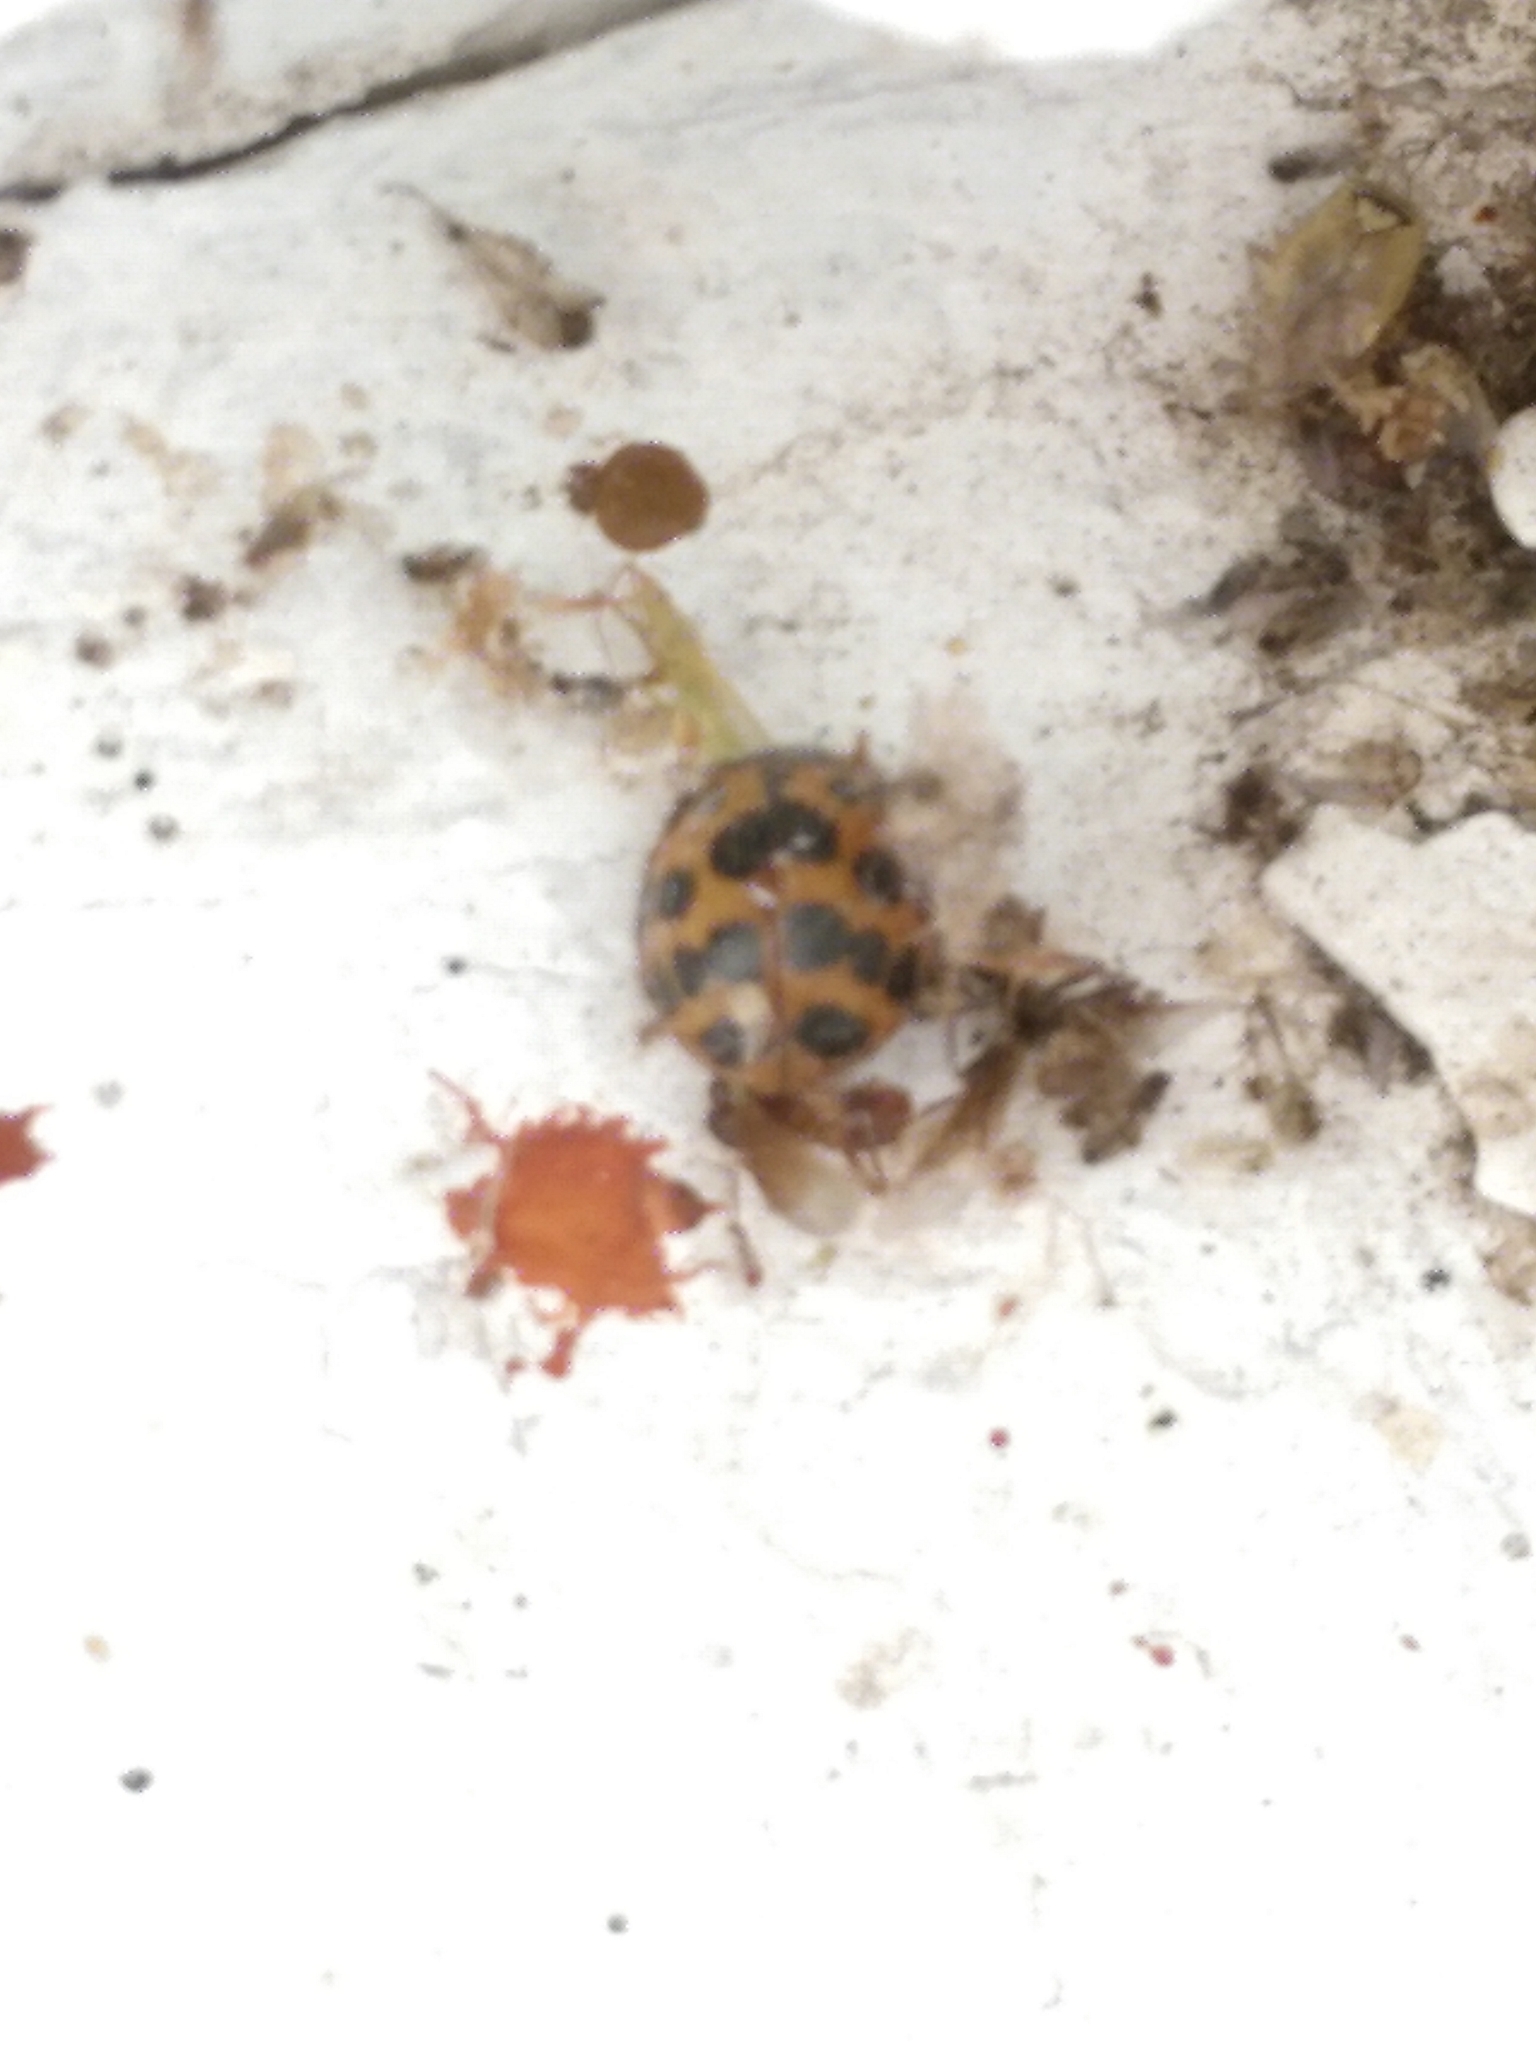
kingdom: Animalia
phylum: Arthropoda
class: Insecta
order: Coleoptera
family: Coccinellidae
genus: Harmonia
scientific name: Harmonia axyridis
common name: Harlequin ladybird
